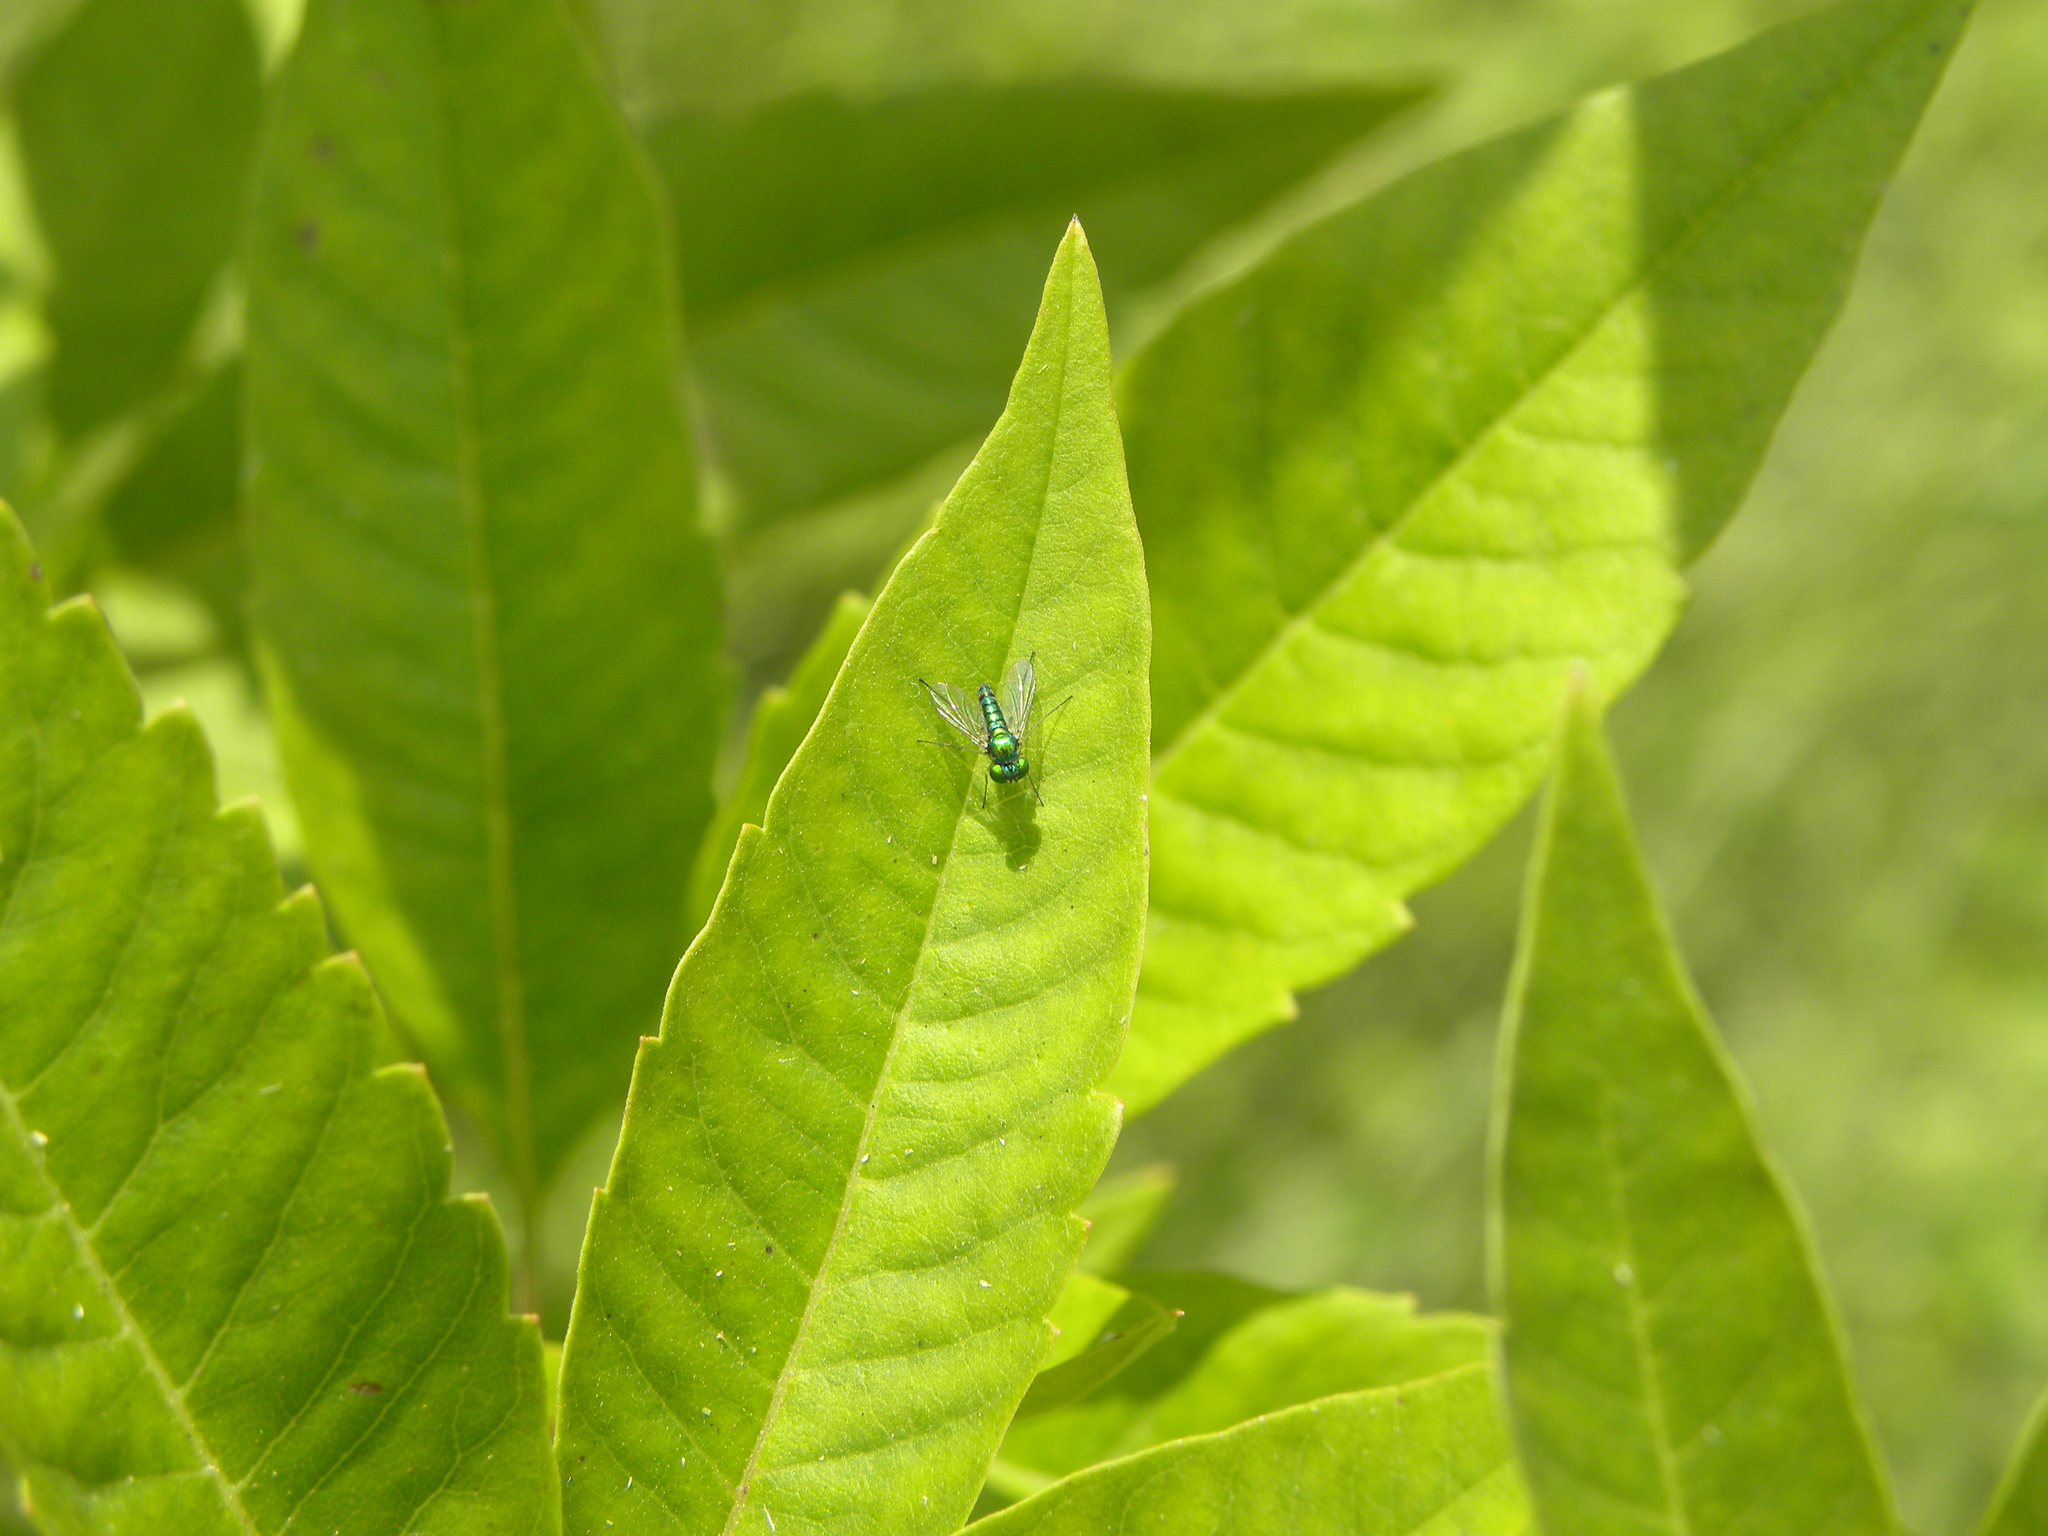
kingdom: Animalia
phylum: Arthropoda
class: Insecta
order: Diptera
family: Dolichopodidae
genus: Condylostylus
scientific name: Condylostylus flavipes
